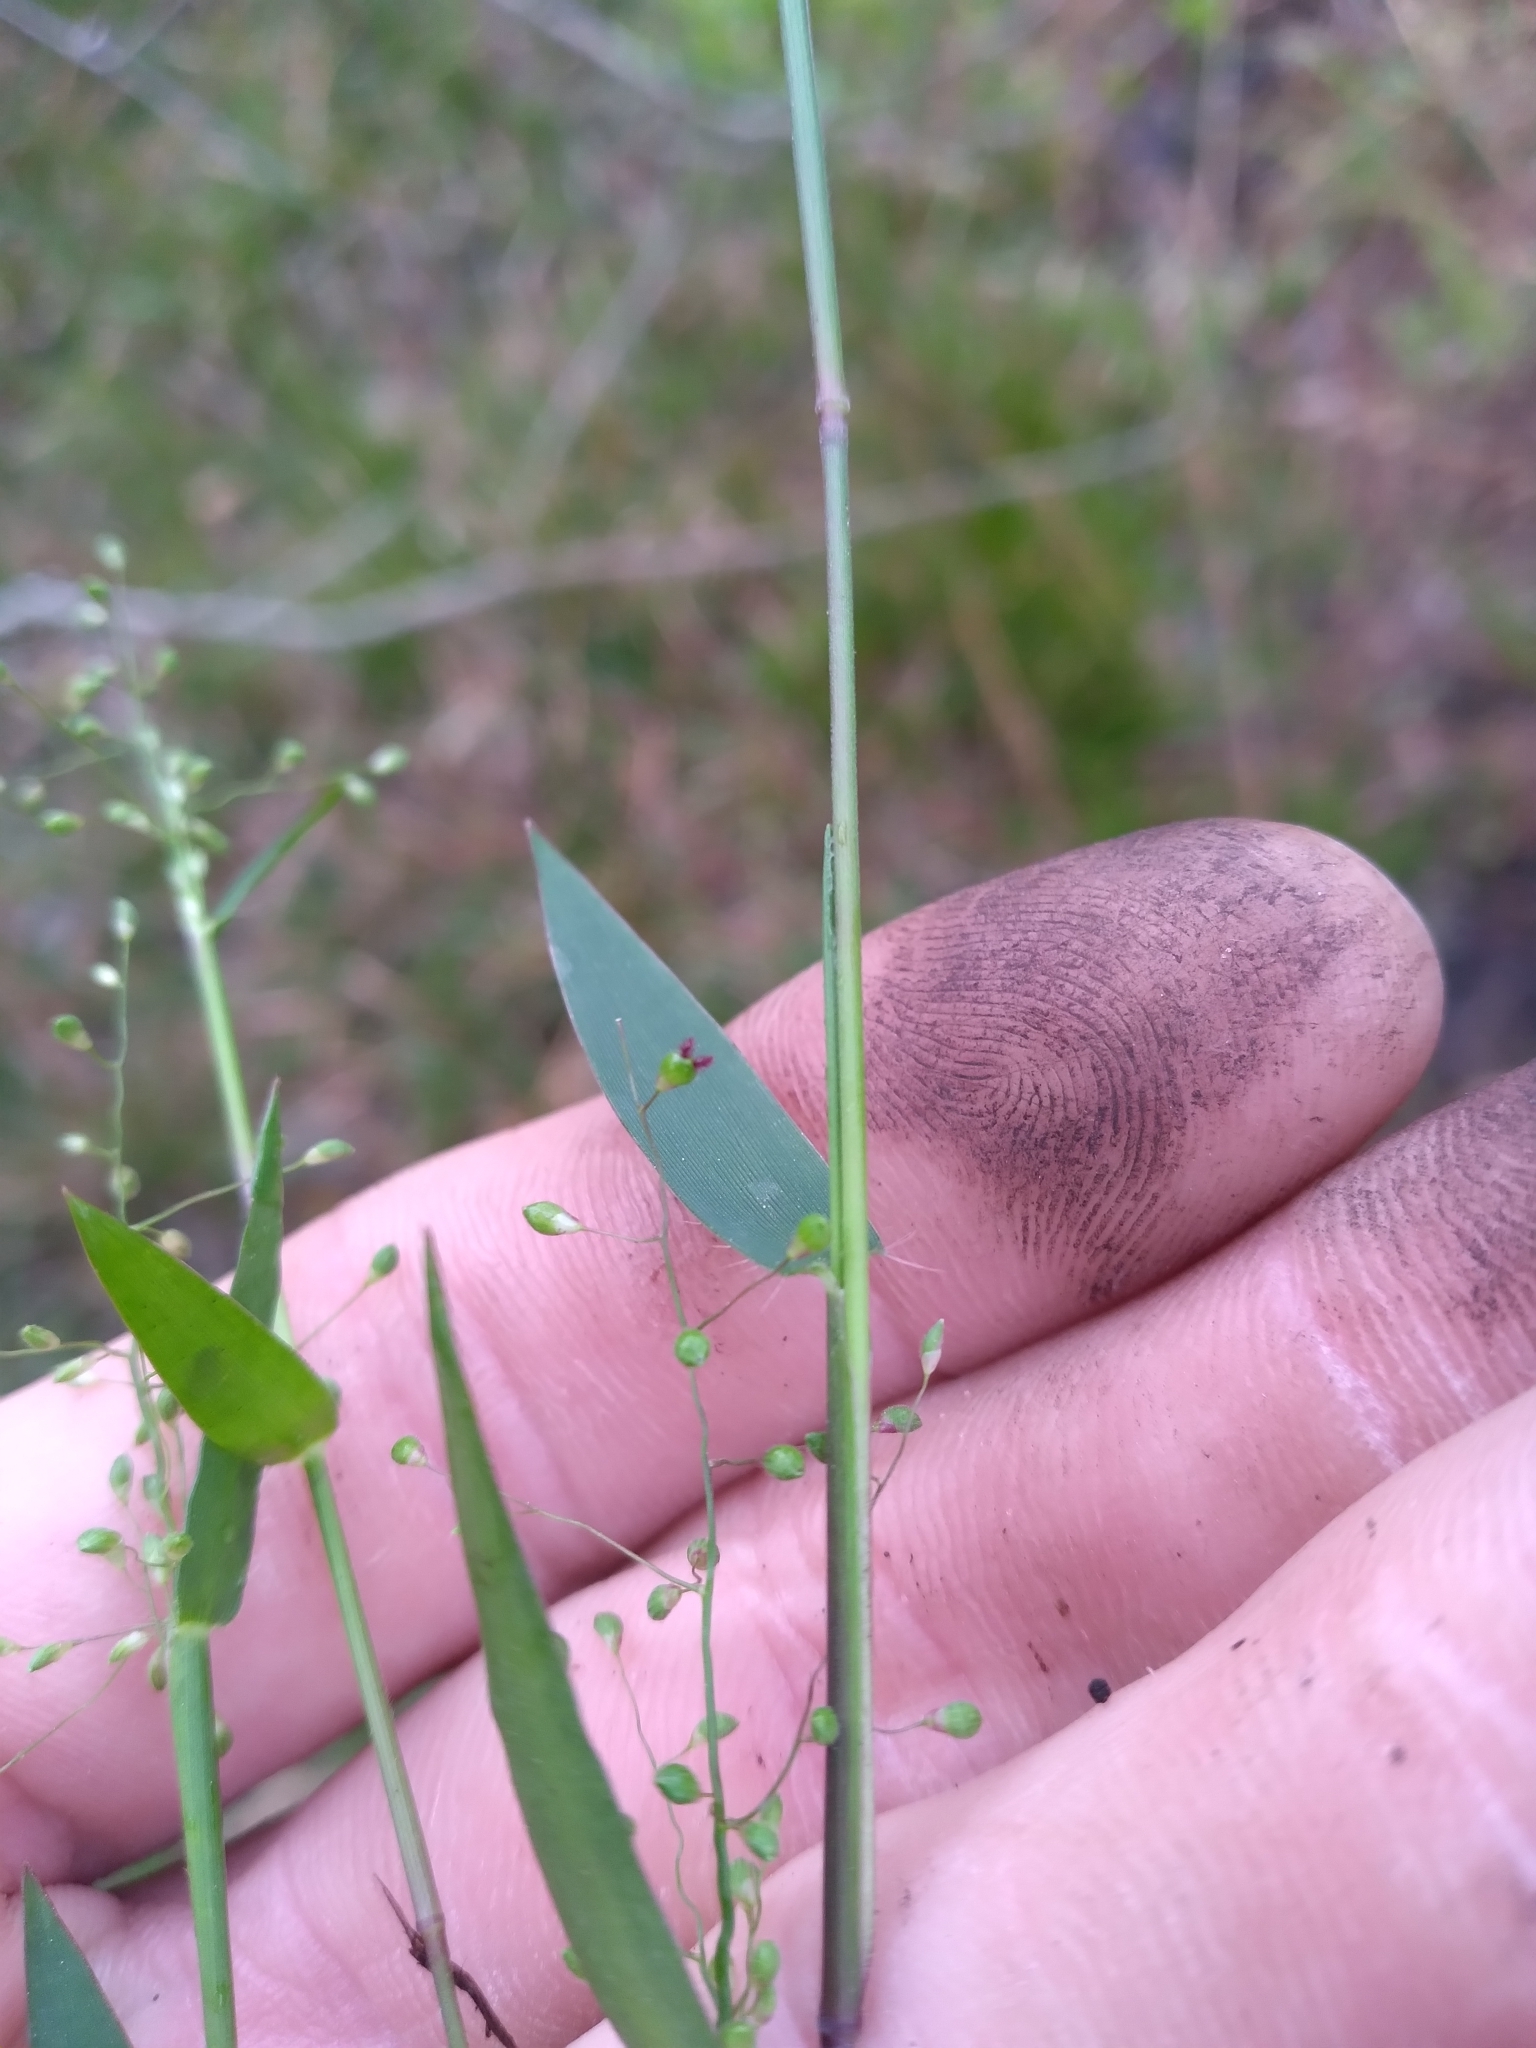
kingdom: Plantae
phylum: Tracheophyta
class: Liliopsida
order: Poales
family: Poaceae
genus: Dichanthelium
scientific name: Dichanthelium webberianum
